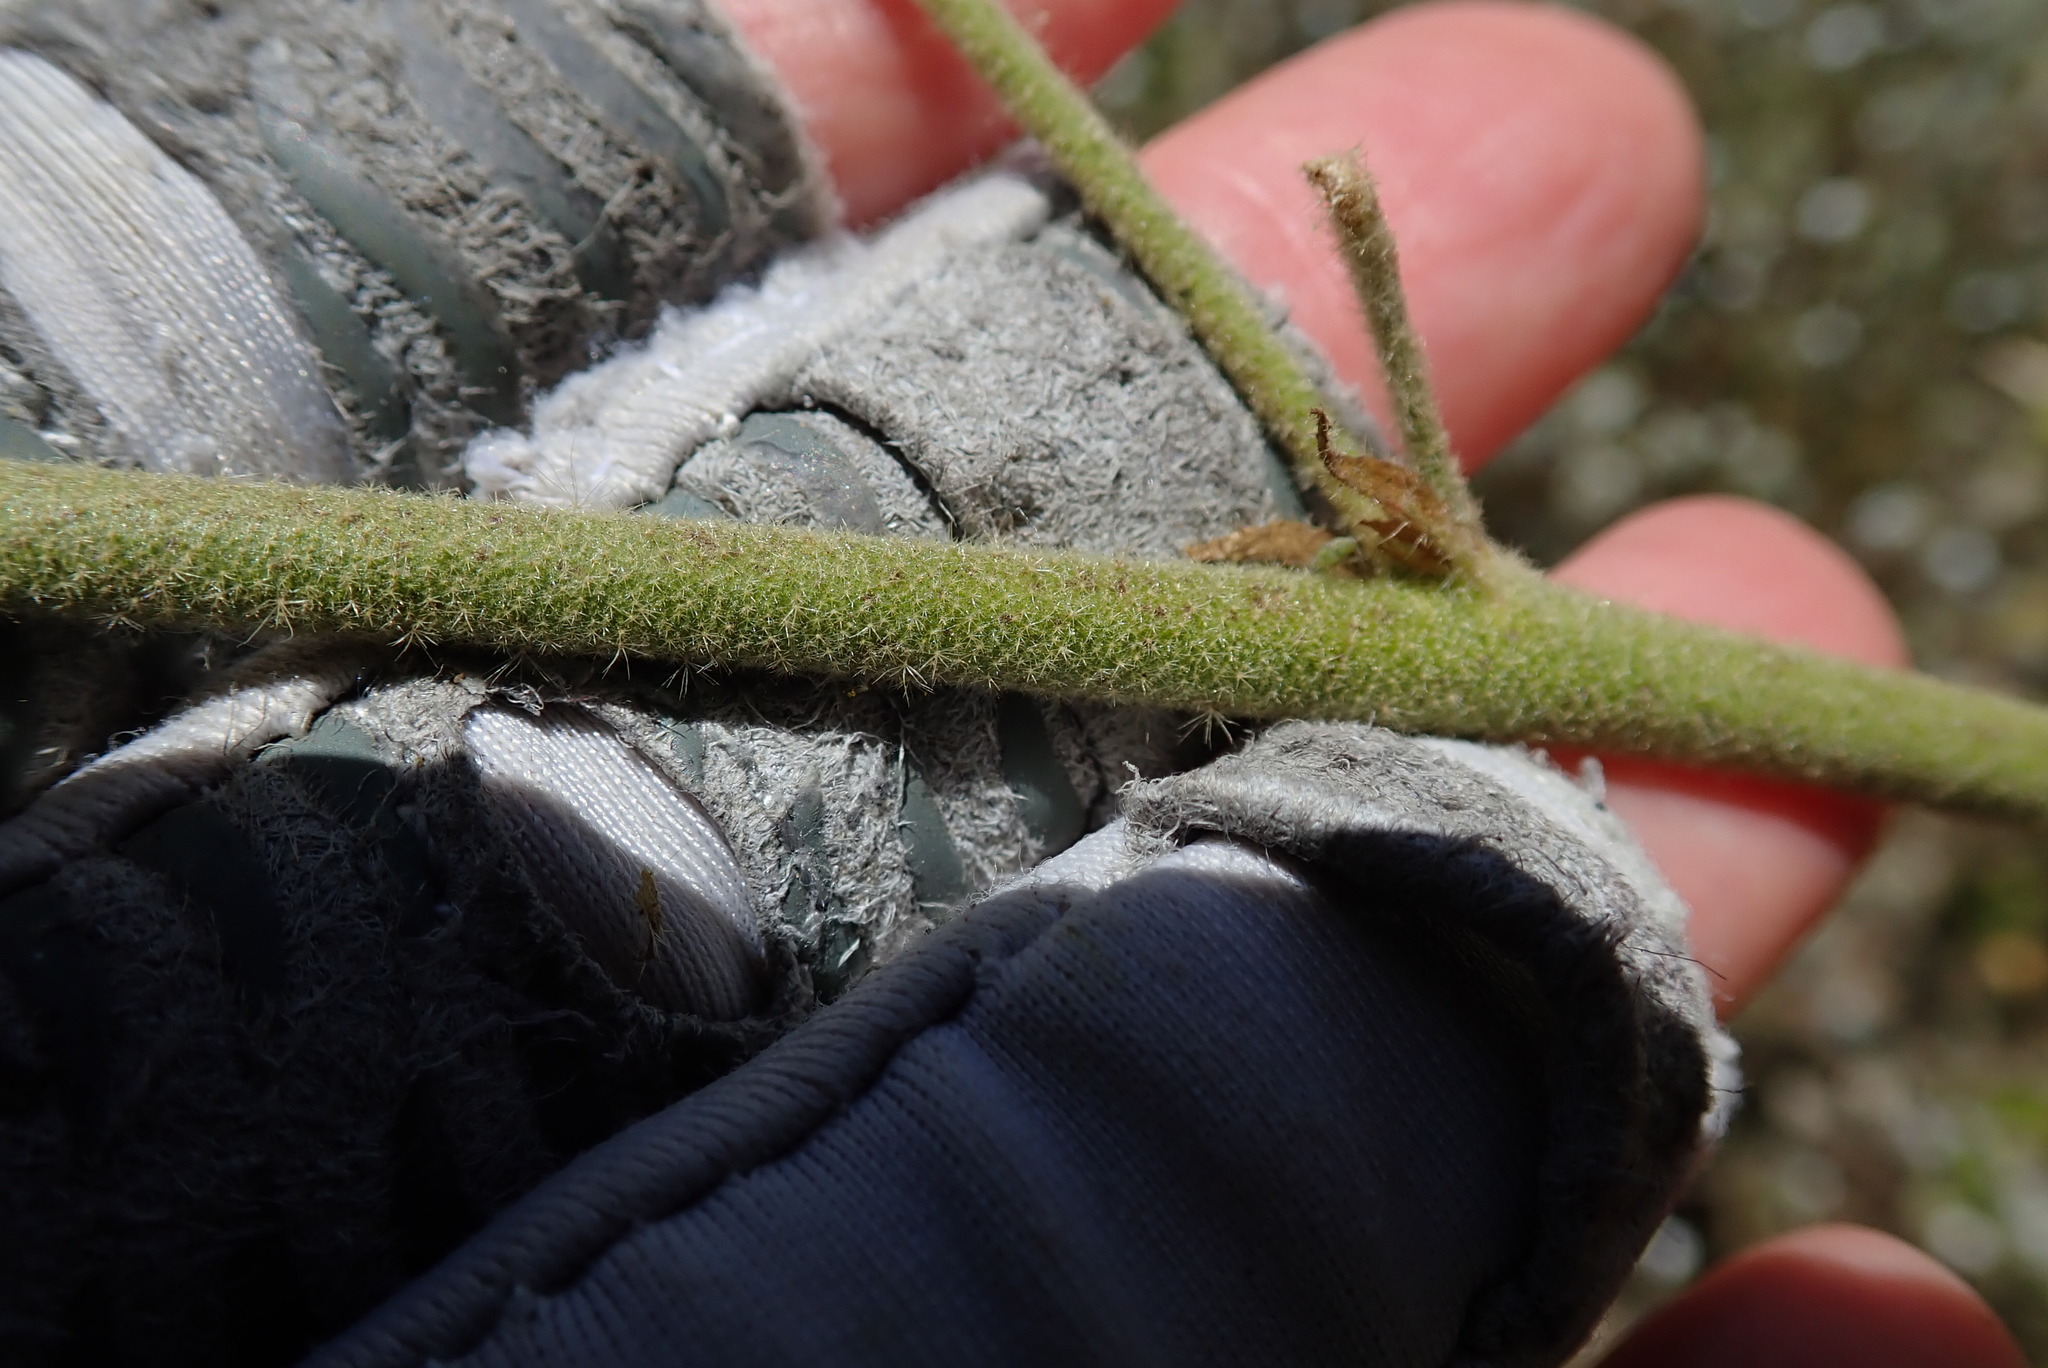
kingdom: Plantae
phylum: Tracheophyta
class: Magnoliopsida
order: Malvales
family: Malvaceae
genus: Malacothamnus
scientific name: Malacothamnus densiflorus
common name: Yellow-stem bush-mallow
